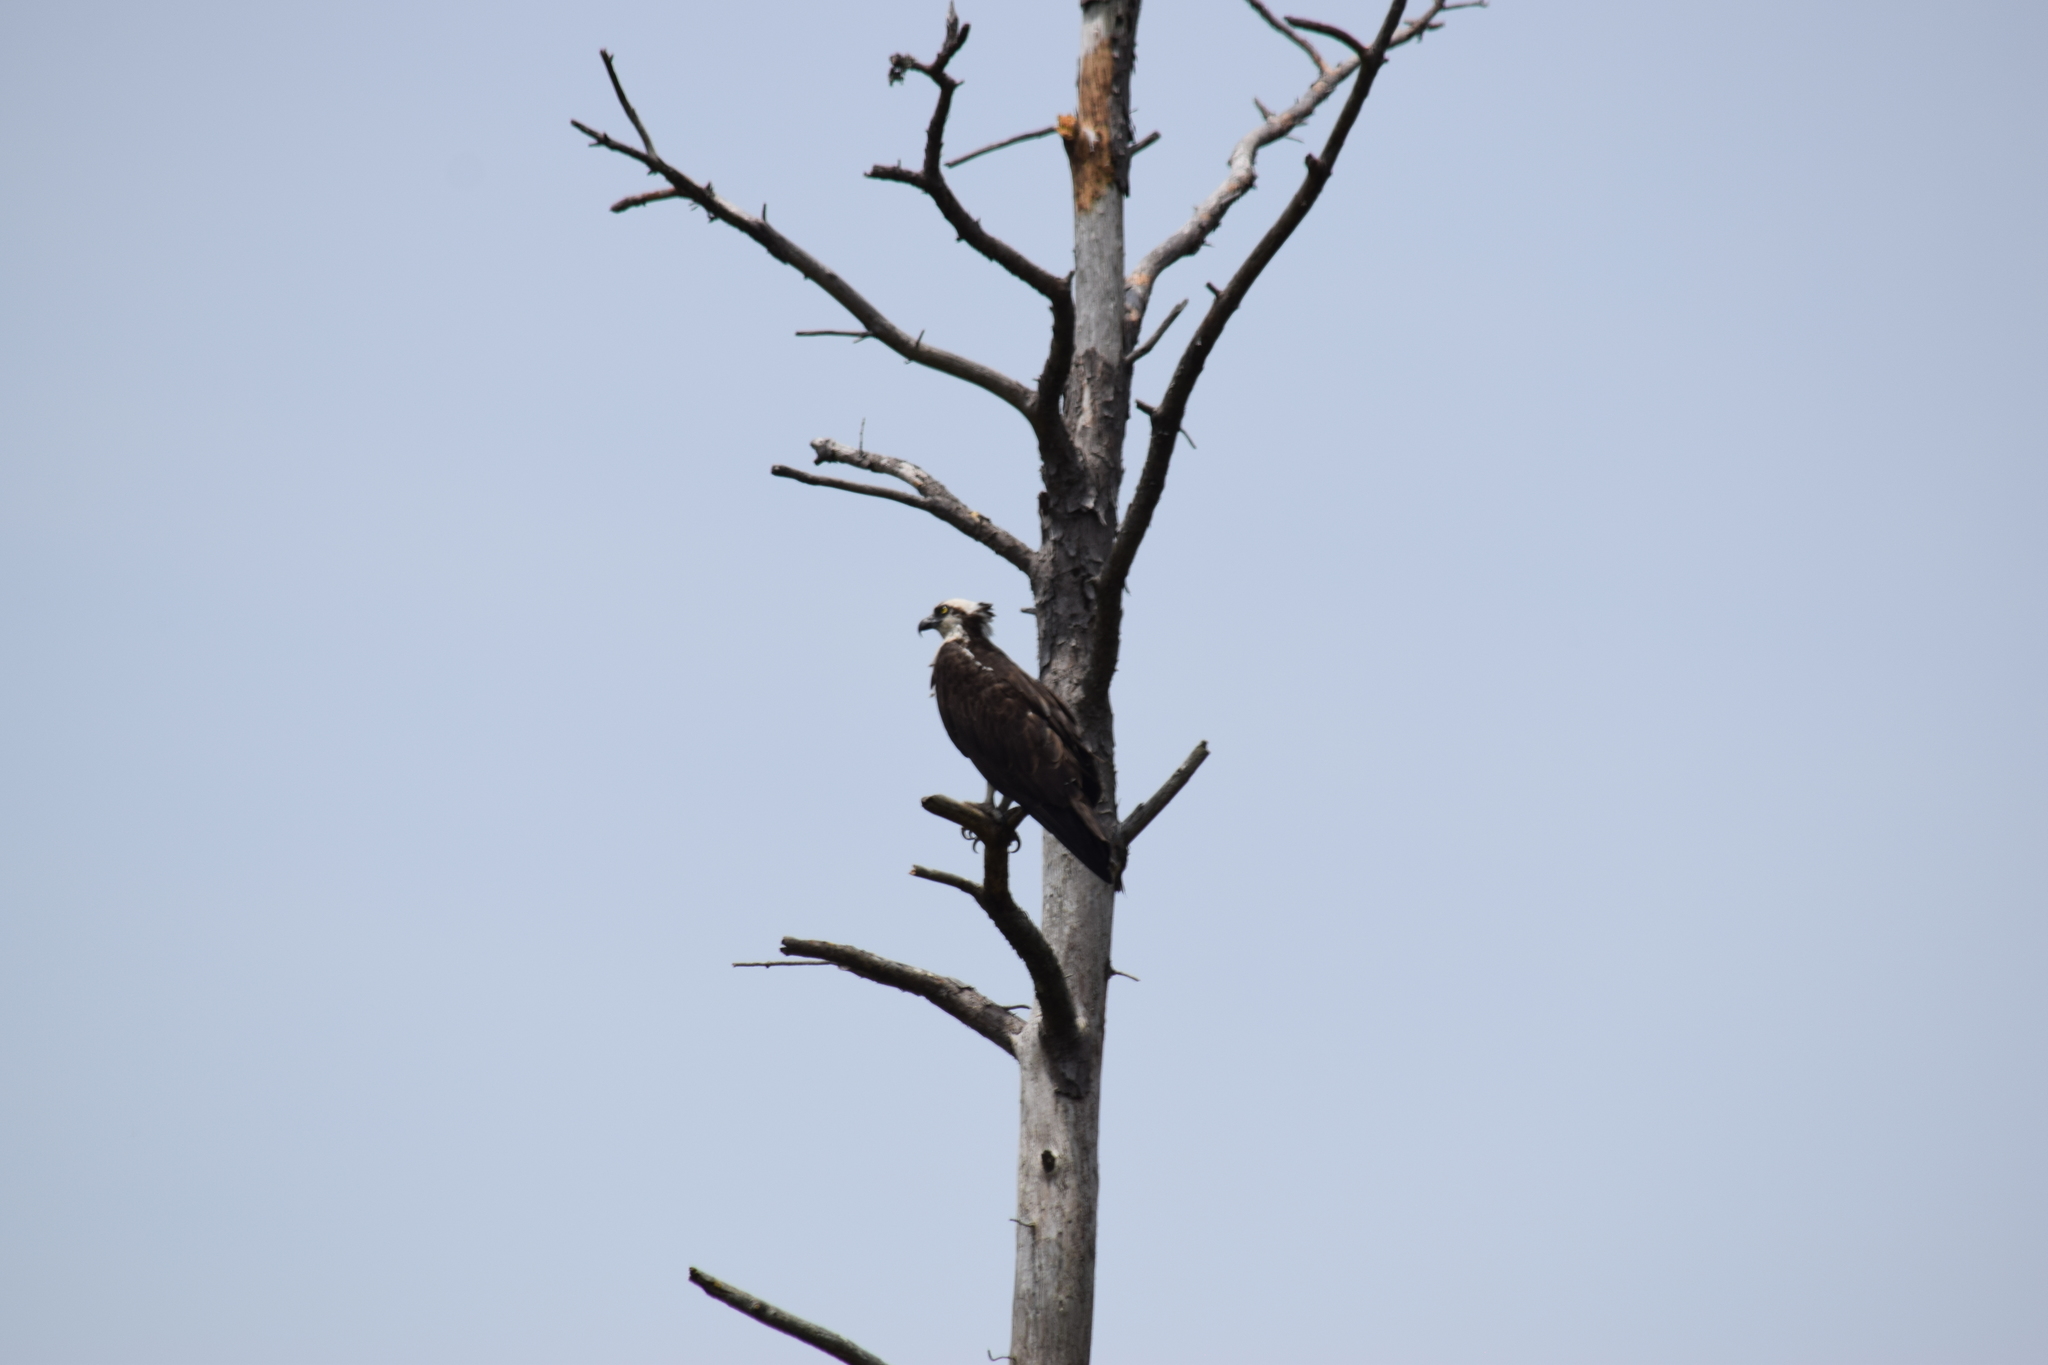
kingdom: Animalia
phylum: Chordata
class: Aves
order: Accipitriformes
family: Pandionidae
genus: Pandion
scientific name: Pandion haliaetus
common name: Osprey
